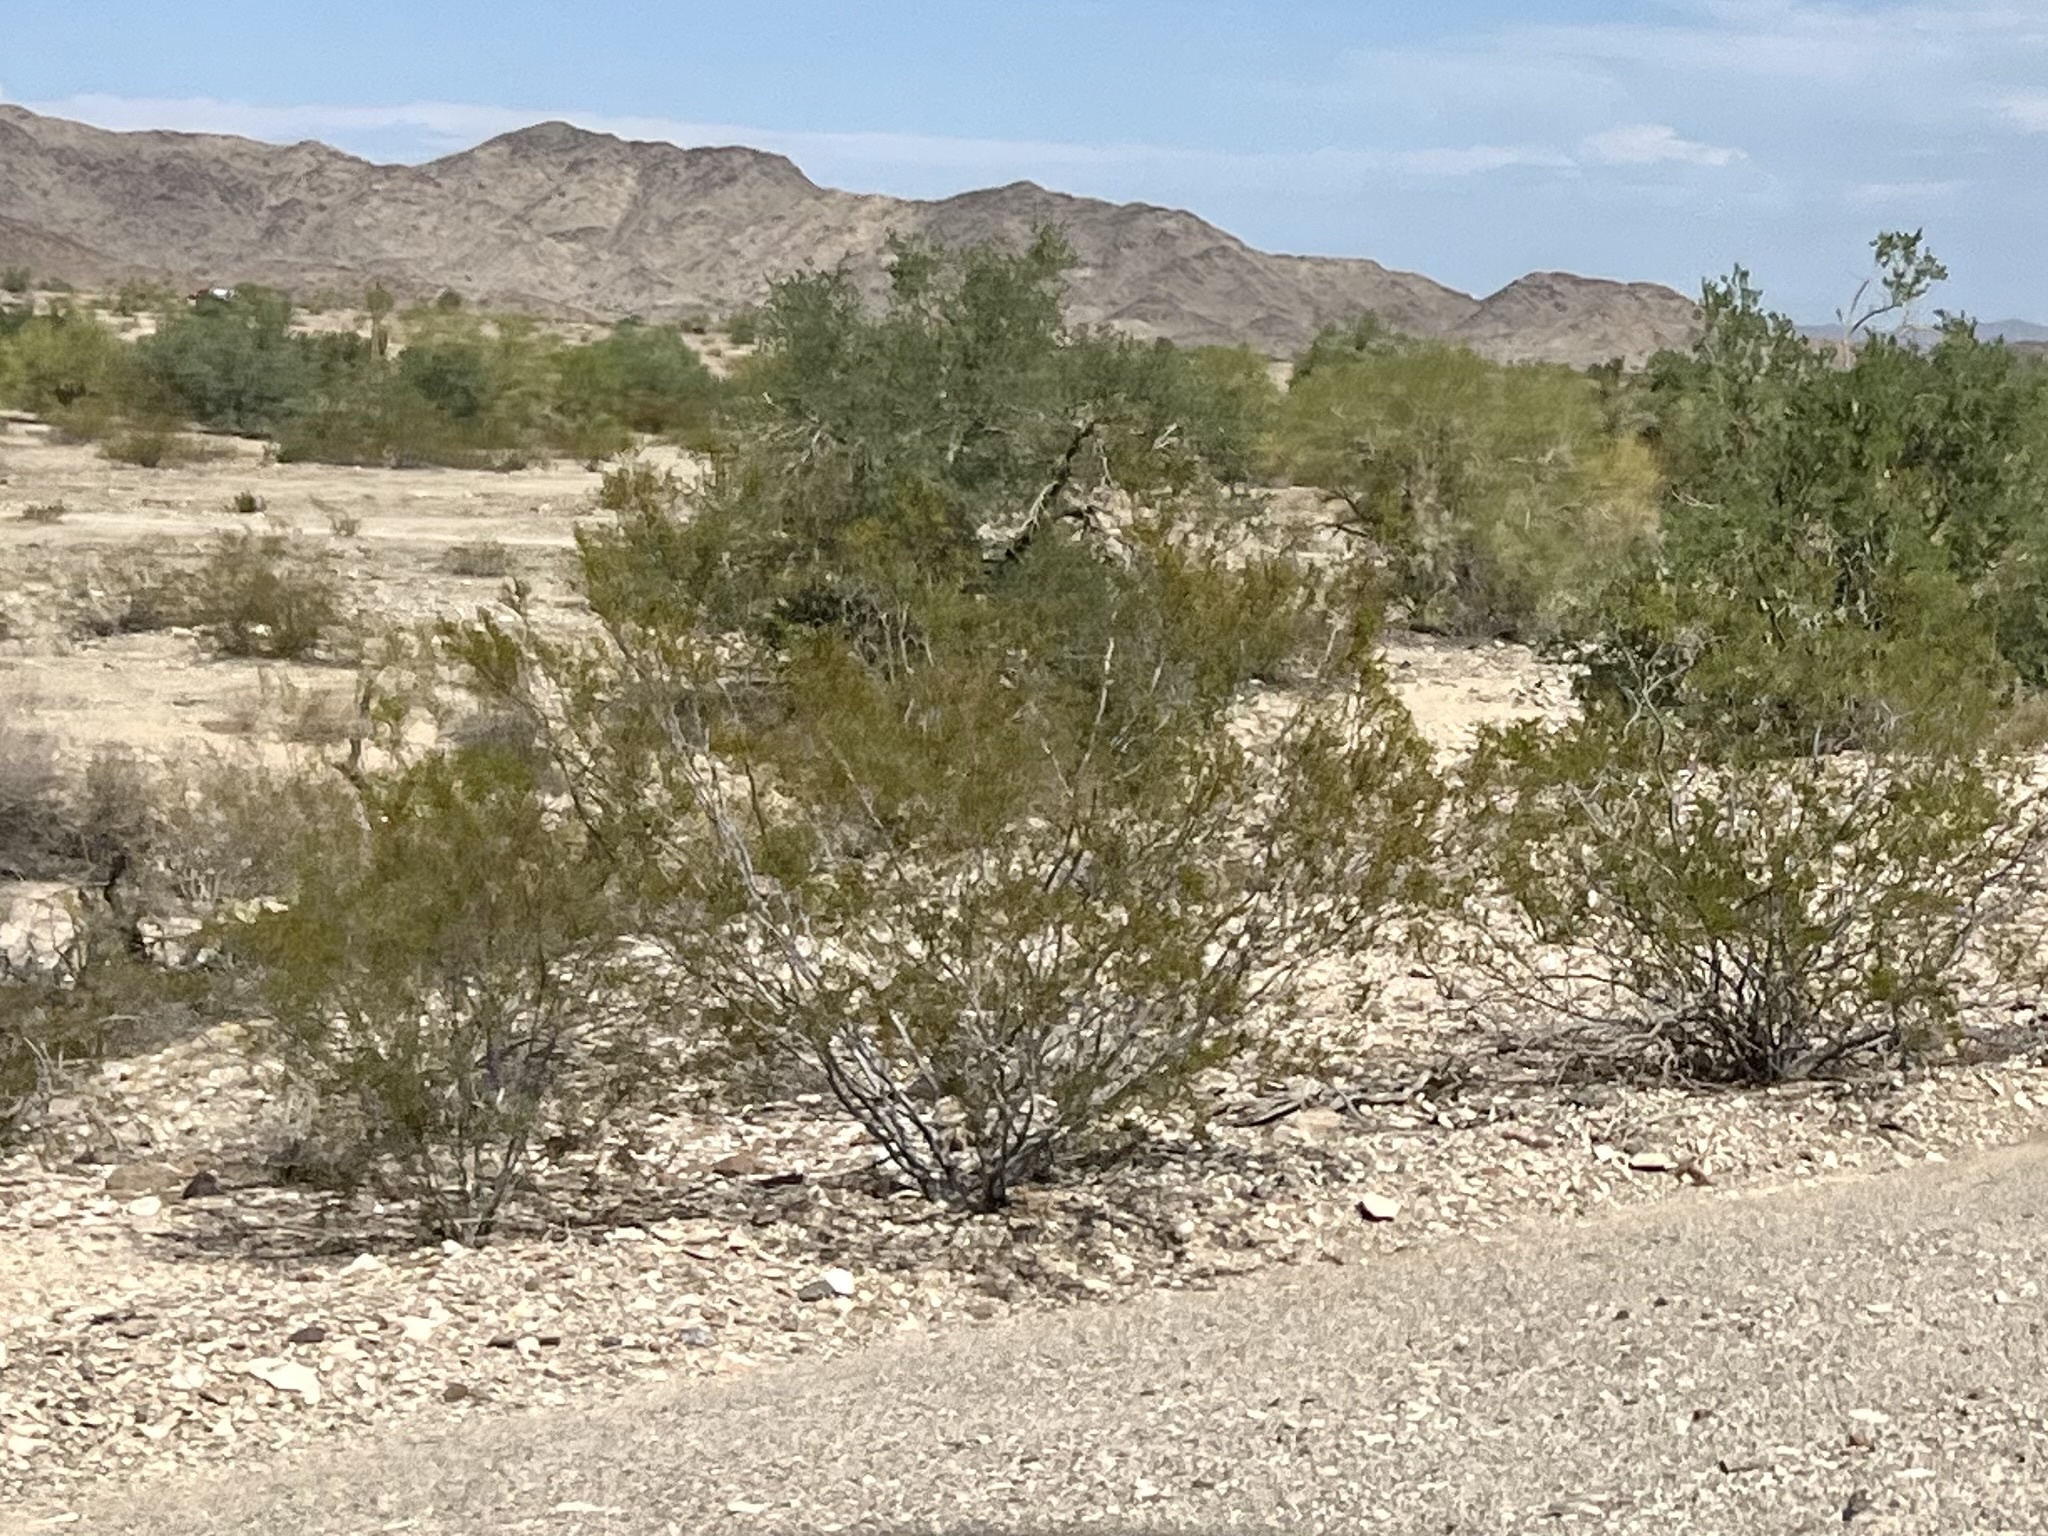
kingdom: Plantae
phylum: Tracheophyta
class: Magnoliopsida
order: Zygophyllales
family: Zygophyllaceae
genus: Larrea
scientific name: Larrea tridentata
